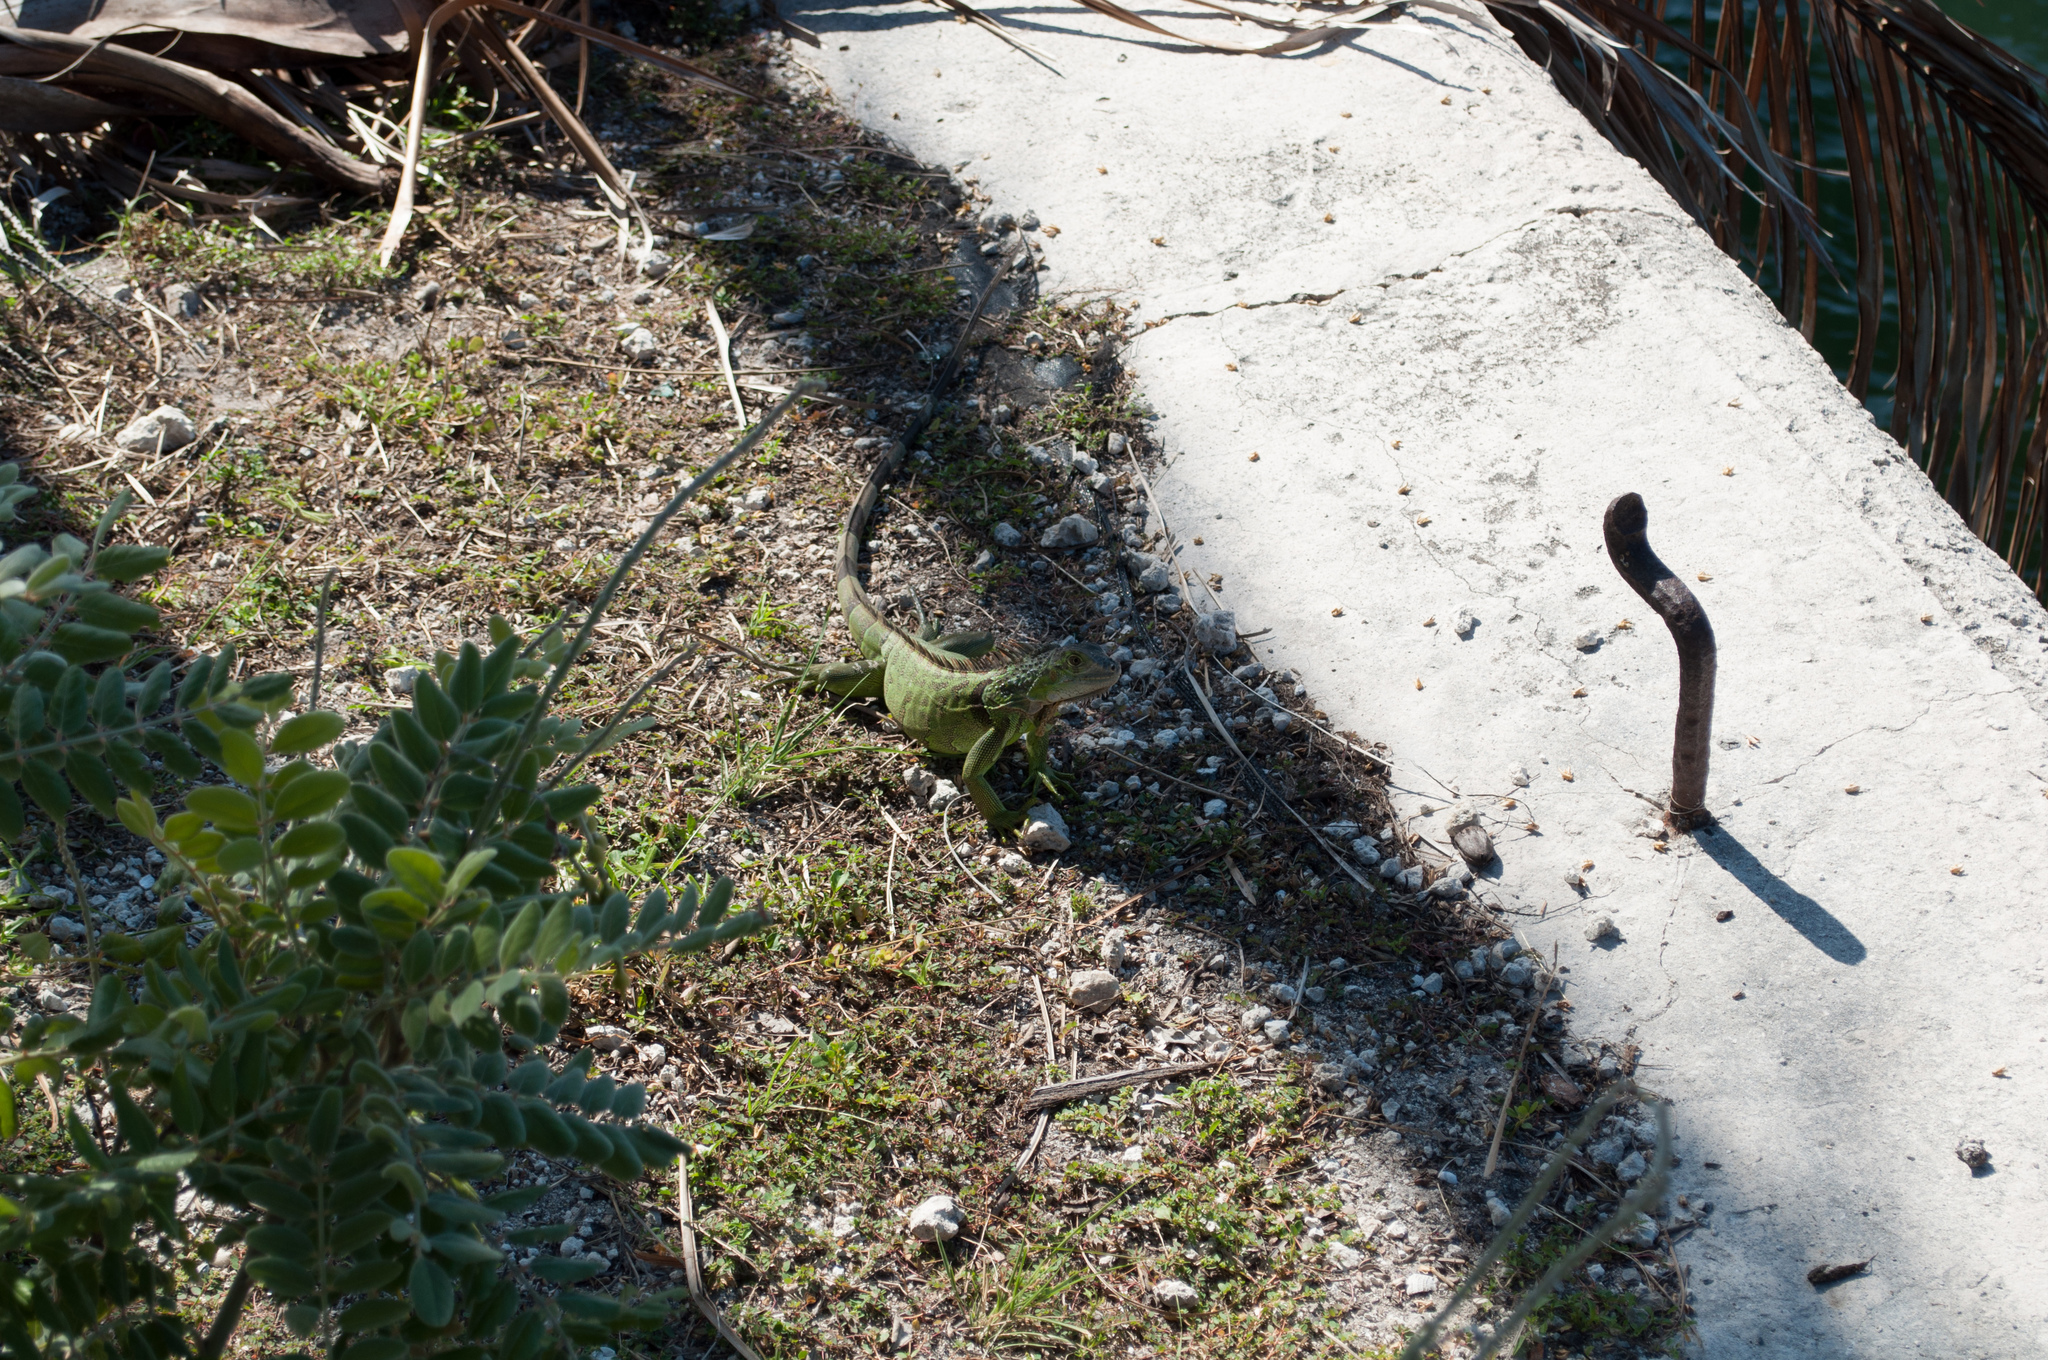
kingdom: Animalia
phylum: Chordata
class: Squamata
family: Iguanidae
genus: Iguana
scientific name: Iguana iguana
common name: Green iguana
